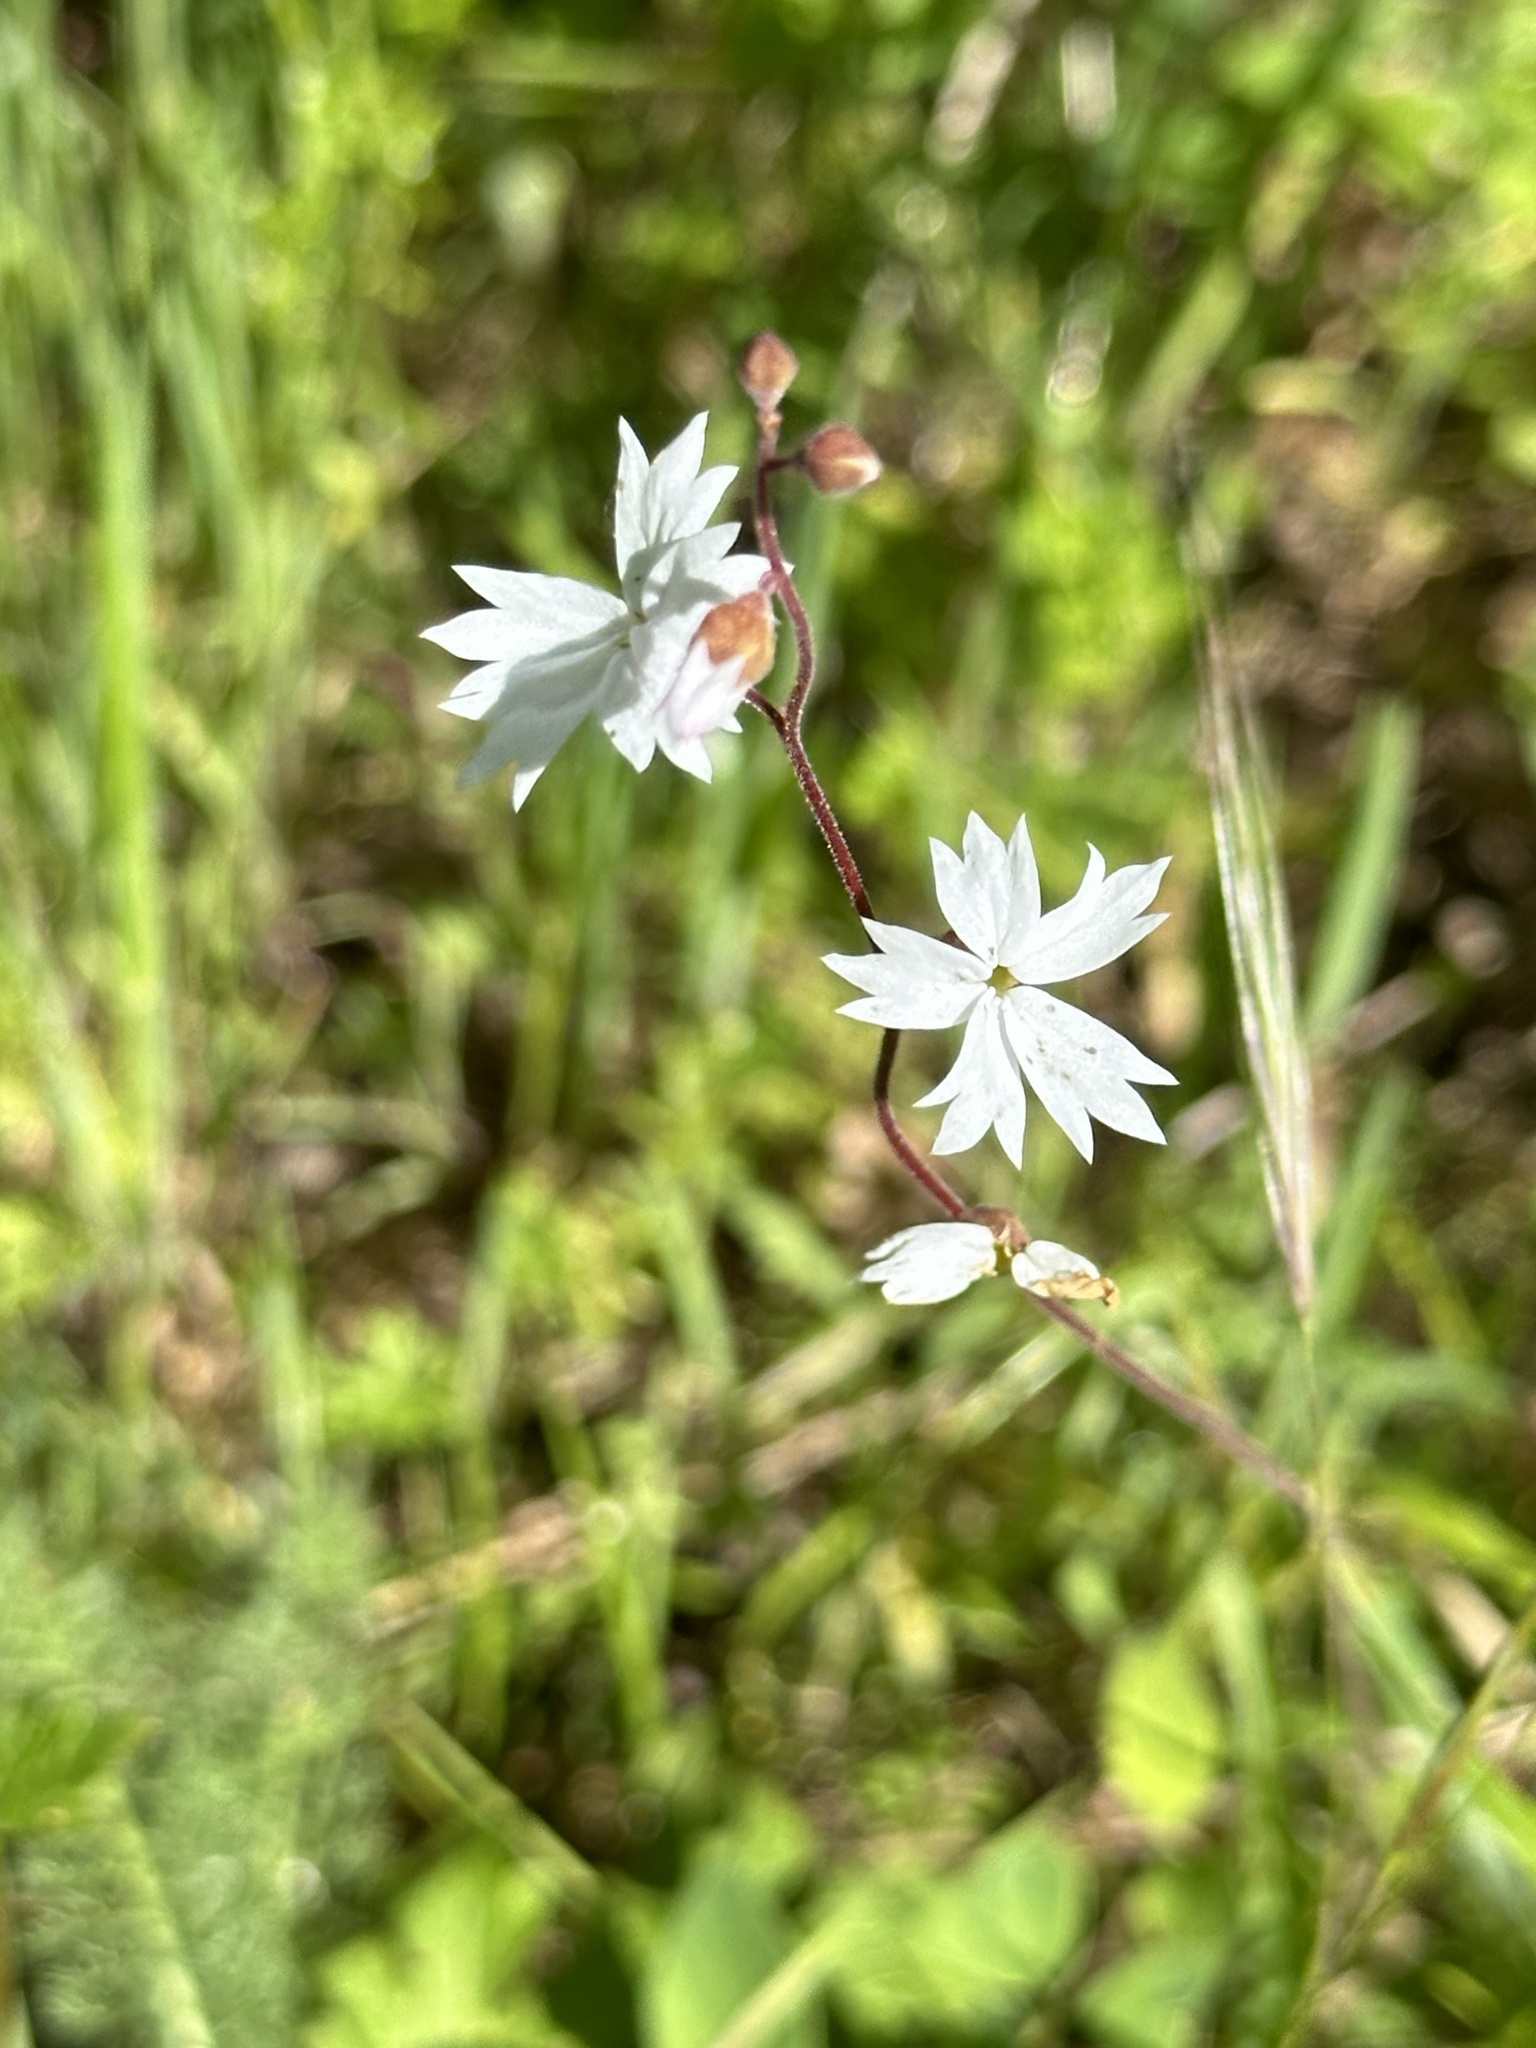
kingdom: Plantae
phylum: Tracheophyta
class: Magnoliopsida
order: Saxifragales
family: Saxifragaceae
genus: Lithophragma
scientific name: Lithophragma affine
